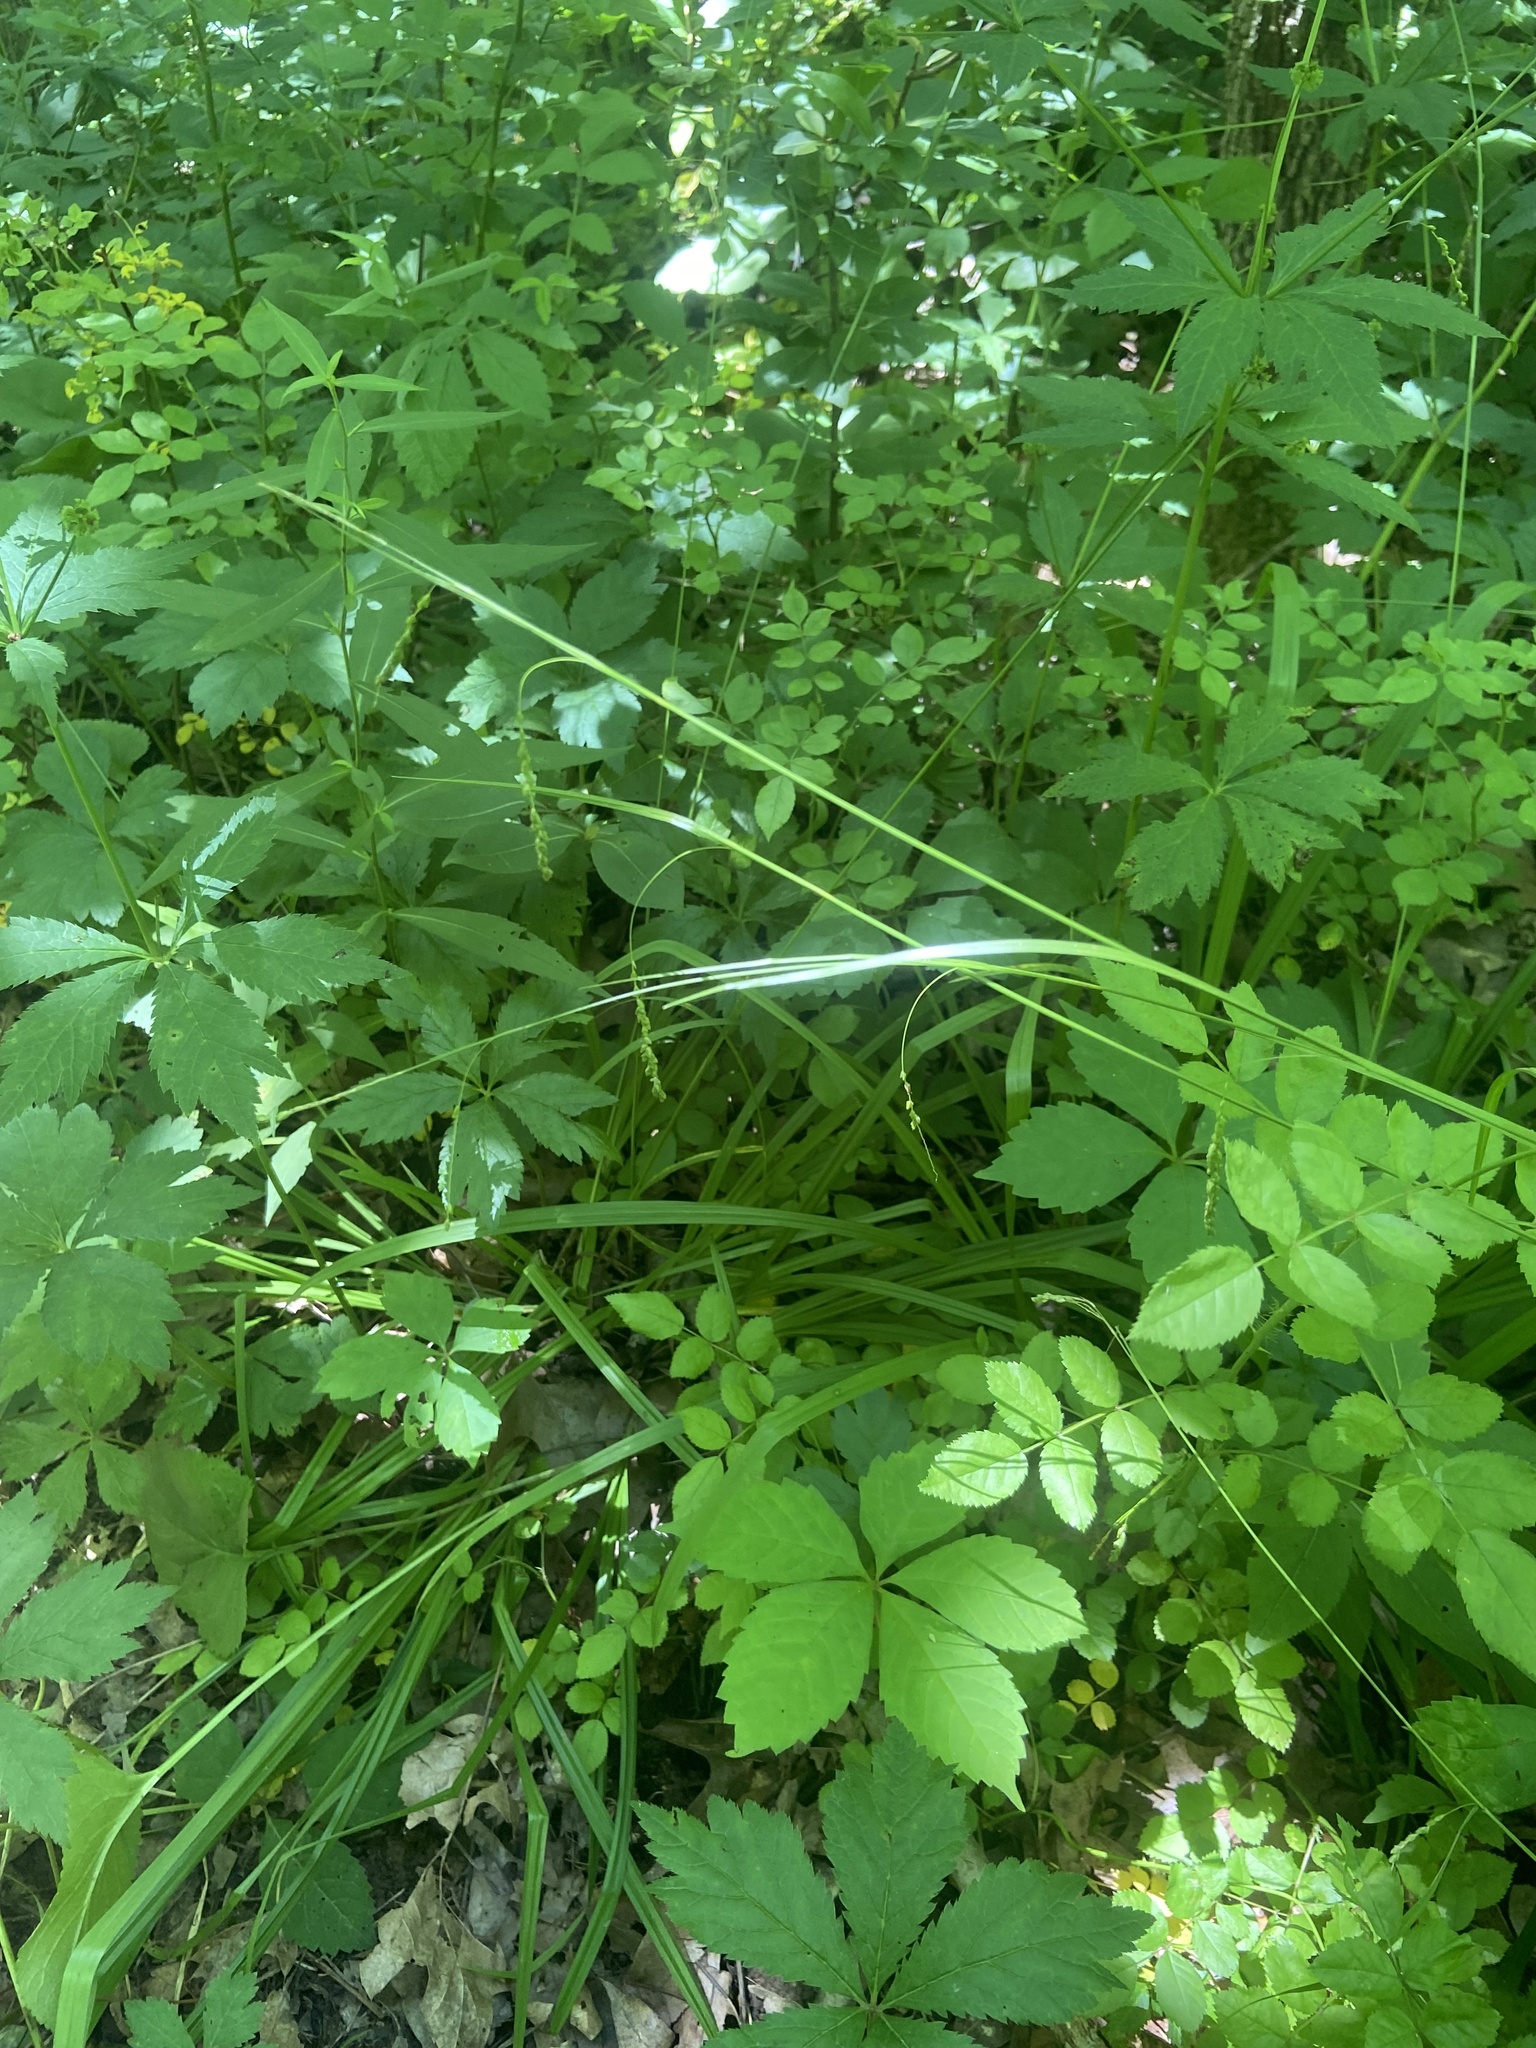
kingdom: Plantae
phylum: Tracheophyta
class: Liliopsida
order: Poales
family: Cyperaceae
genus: Carex
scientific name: Carex gracillima
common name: Graceful sedge
